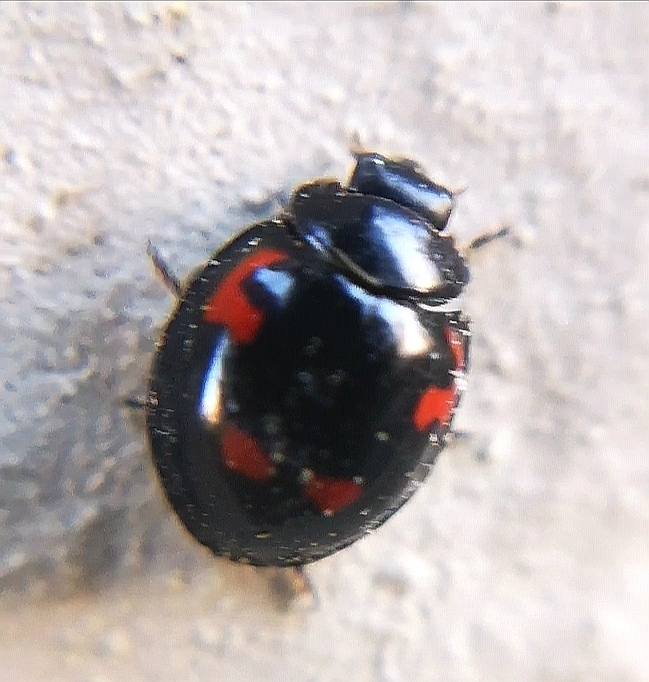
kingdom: Animalia
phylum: Arthropoda
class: Insecta
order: Coleoptera
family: Coccinellidae
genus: Brumus
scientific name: Brumus quadripustulatus
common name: Ladybird beetle
